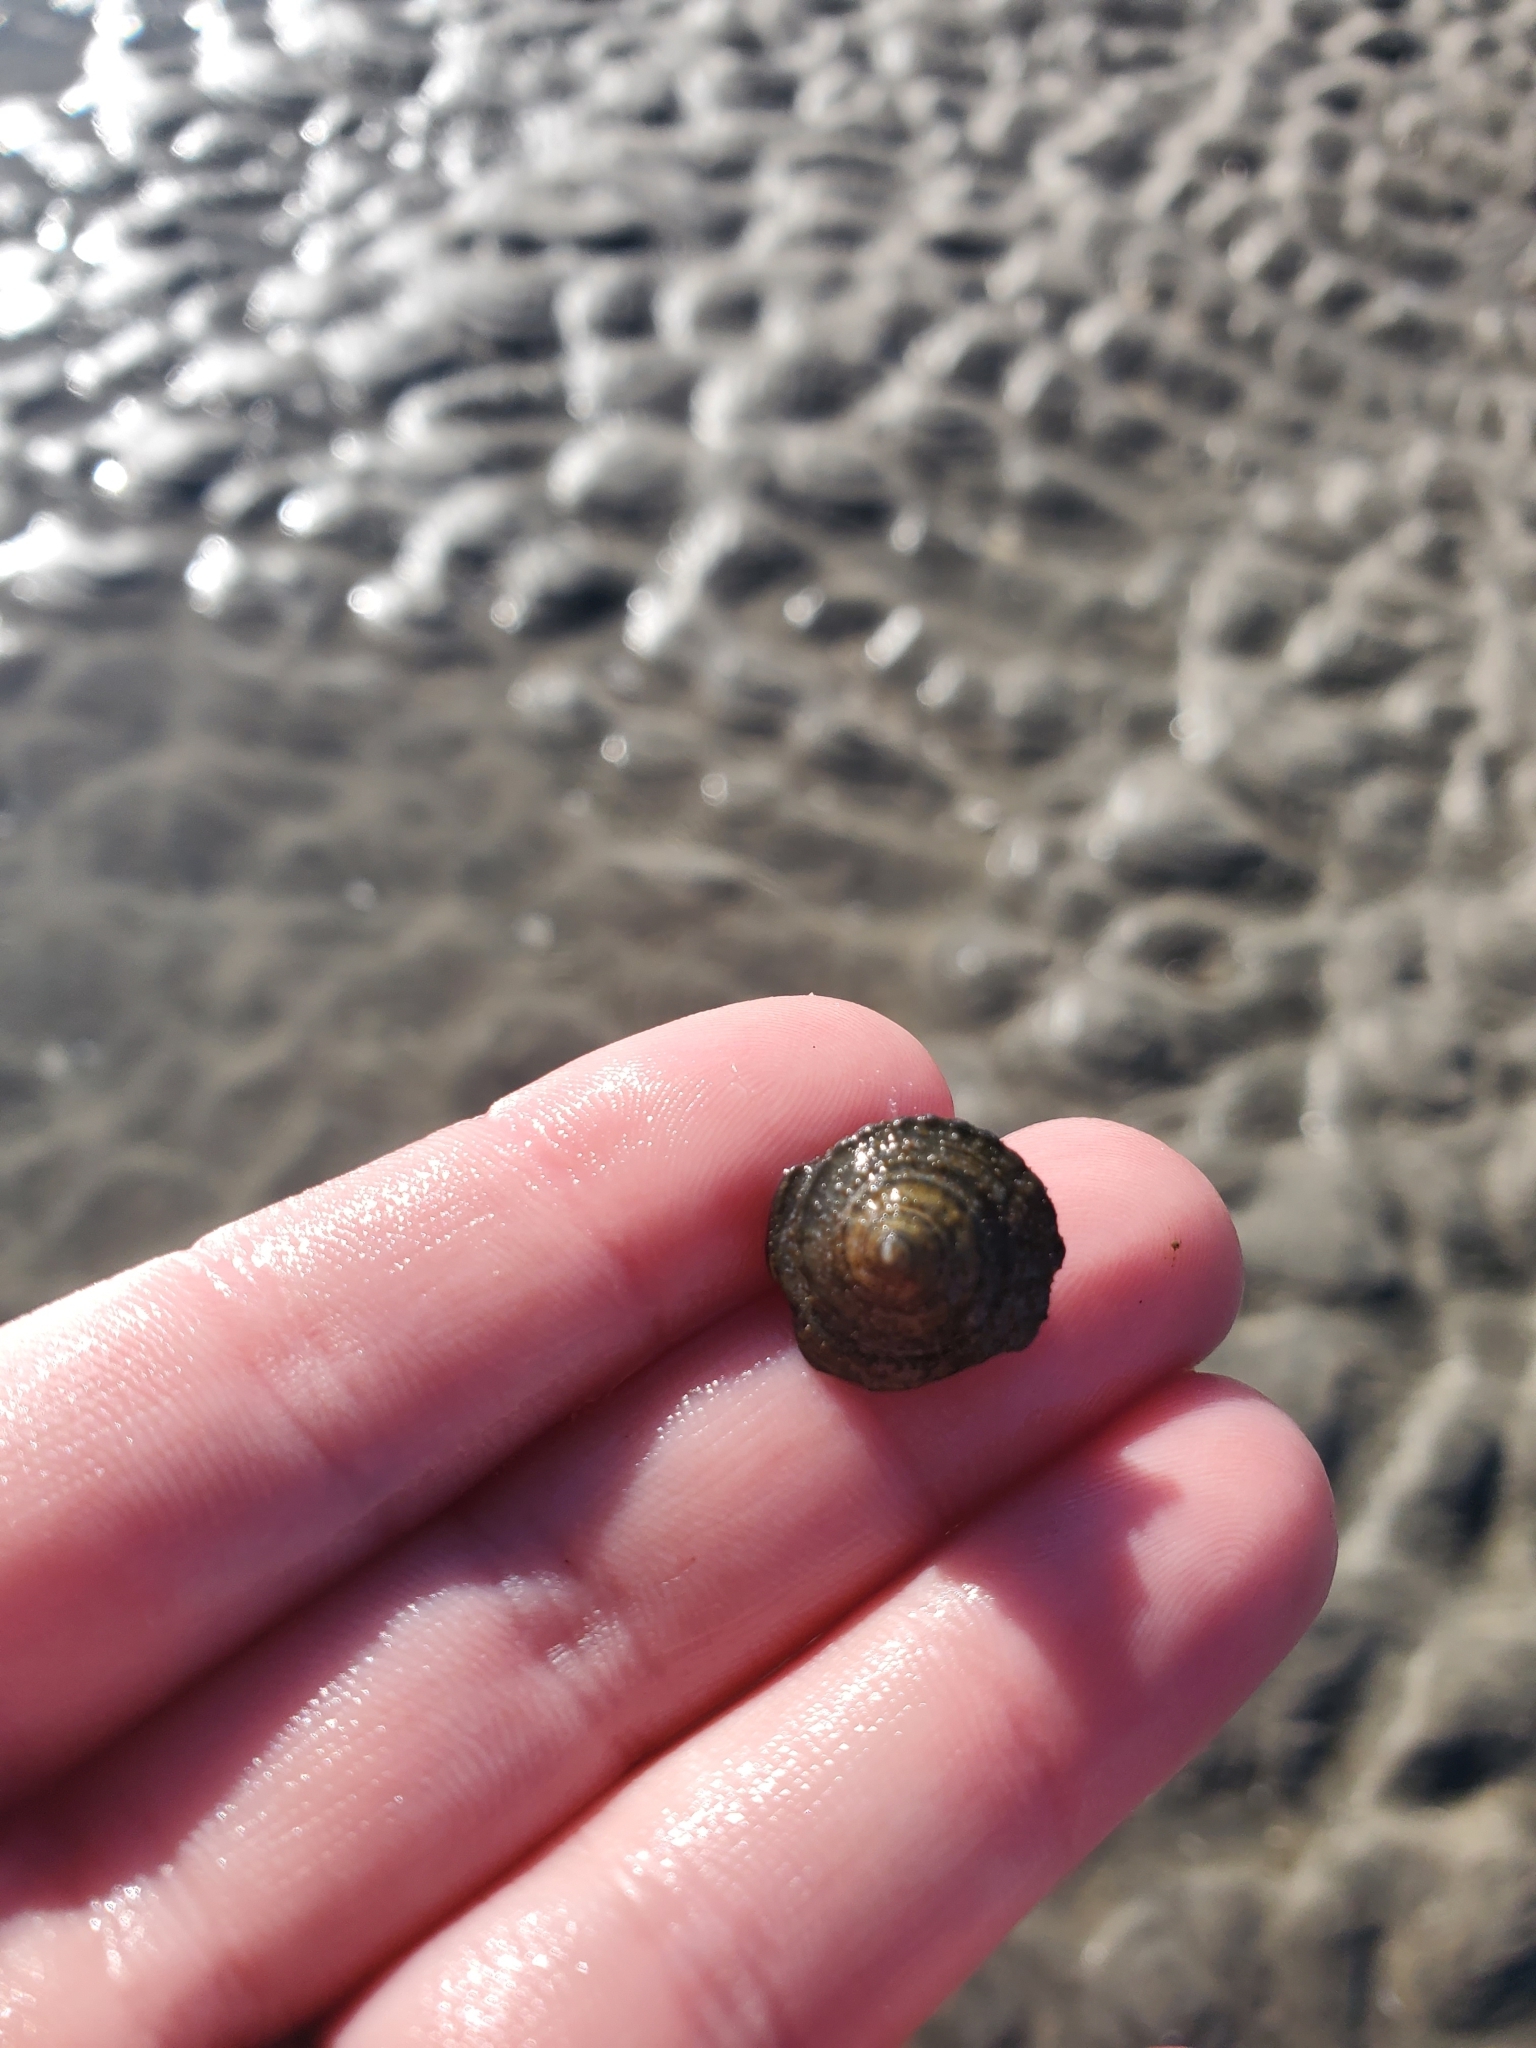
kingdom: Animalia
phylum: Mollusca
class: Gastropoda
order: Neogastropoda
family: Busyconidae
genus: Busycotypus
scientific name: Busycotypus canaliculatus
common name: Channeled whelk
